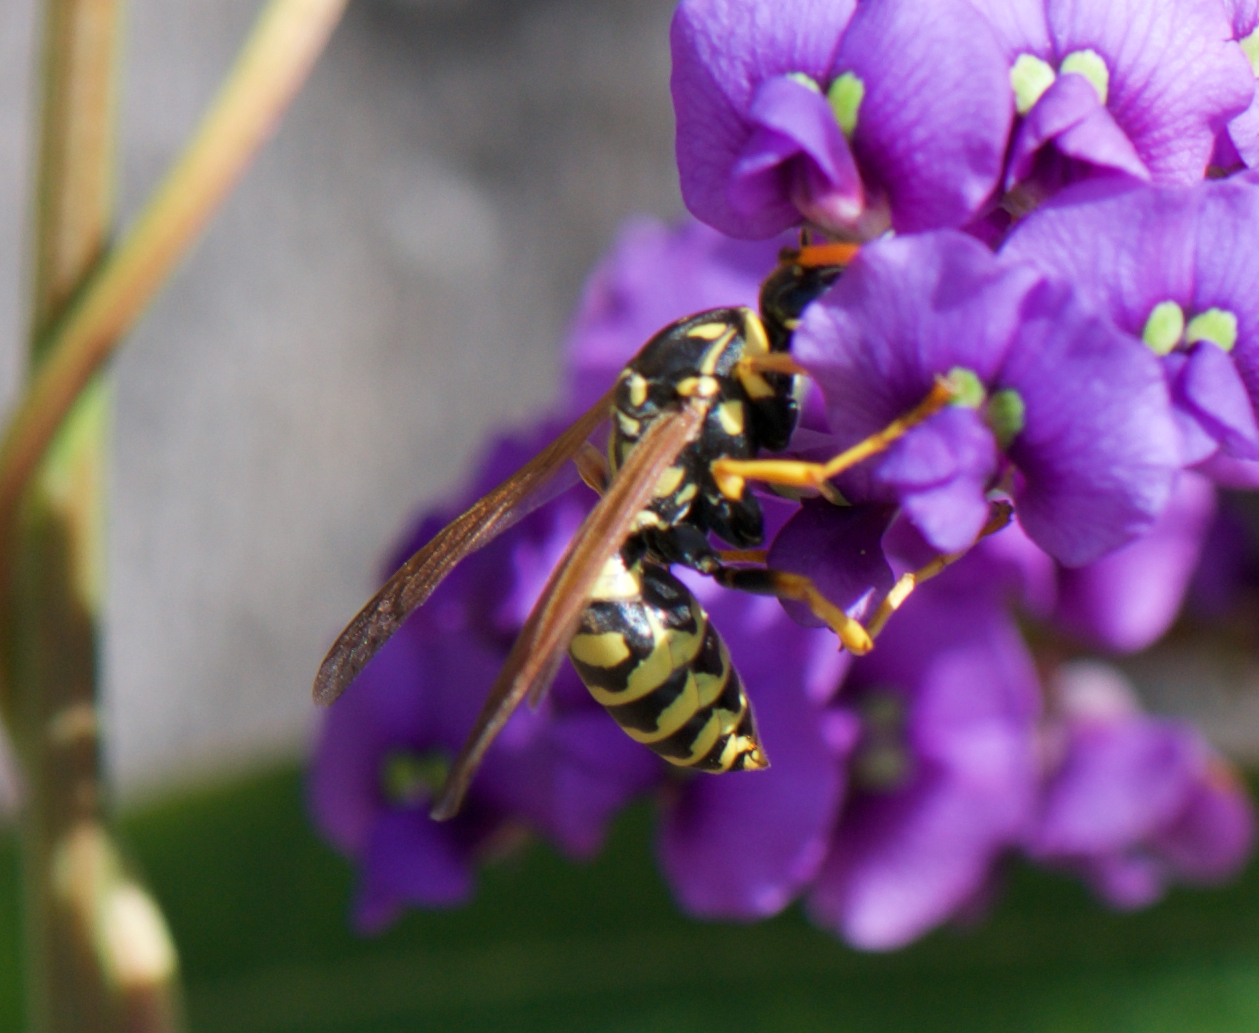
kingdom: Animalia
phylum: Arthropoda
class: Insecta
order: Hymenoptera
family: Eumenidae
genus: Polistes
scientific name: Polistes dominula
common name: Paper wasp
